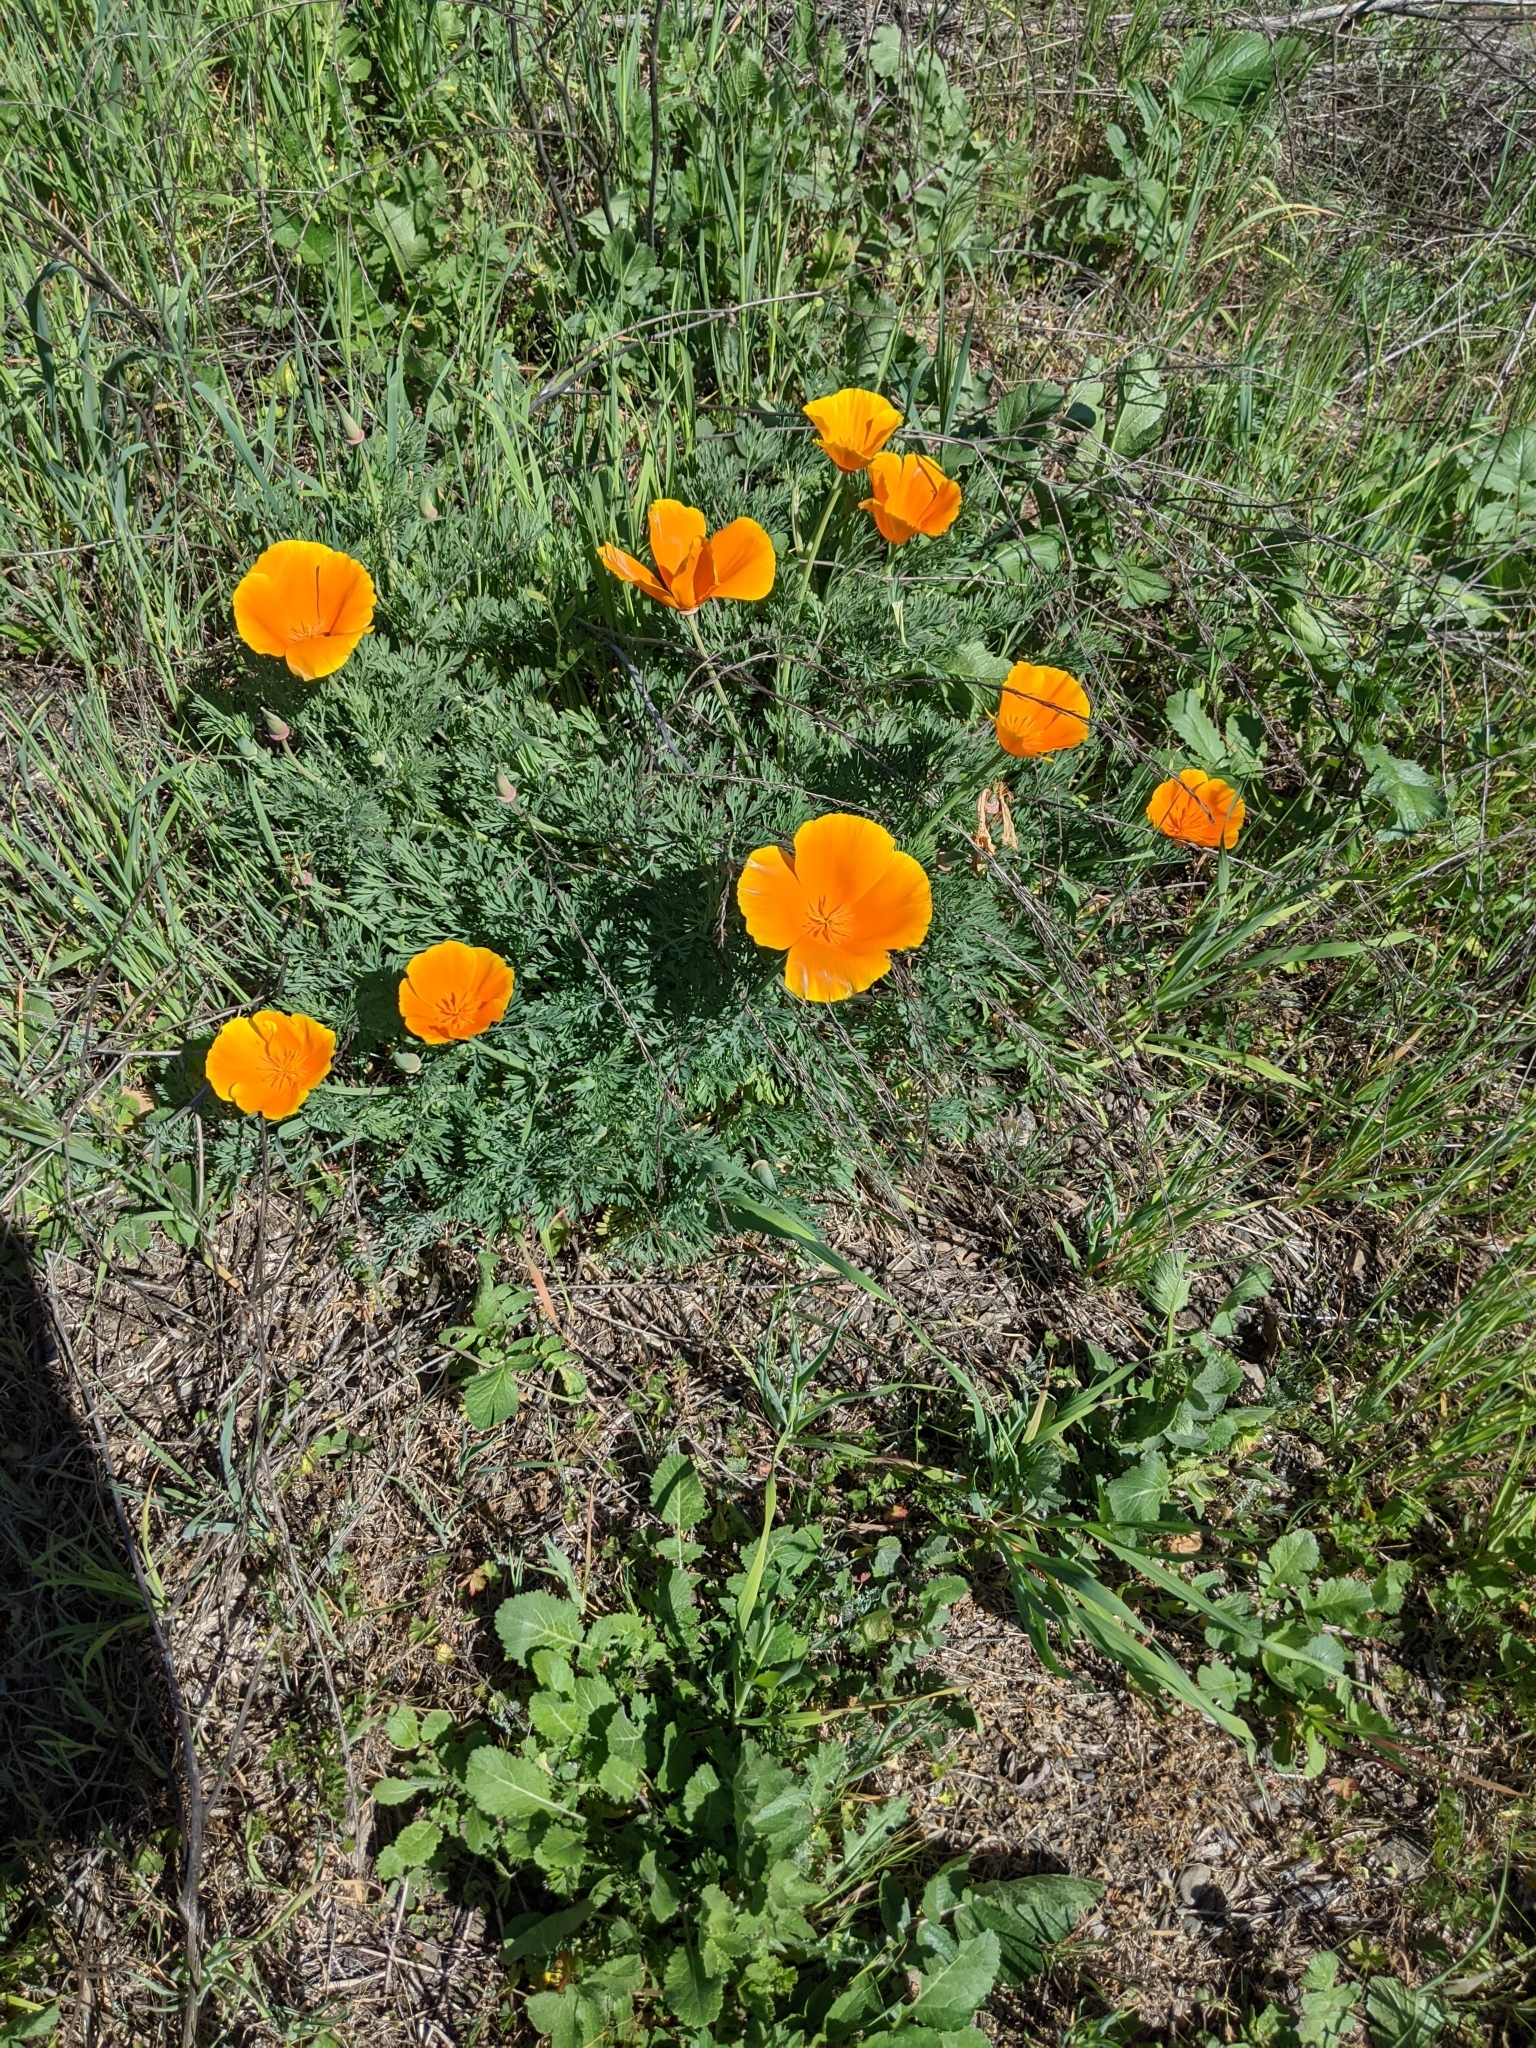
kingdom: Plantae
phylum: Tracheophyta
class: Magnoliopsida
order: Ranunculales
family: Papaveraceae
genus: Eschscholzia
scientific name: Eschscholzia californica
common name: California poppy
